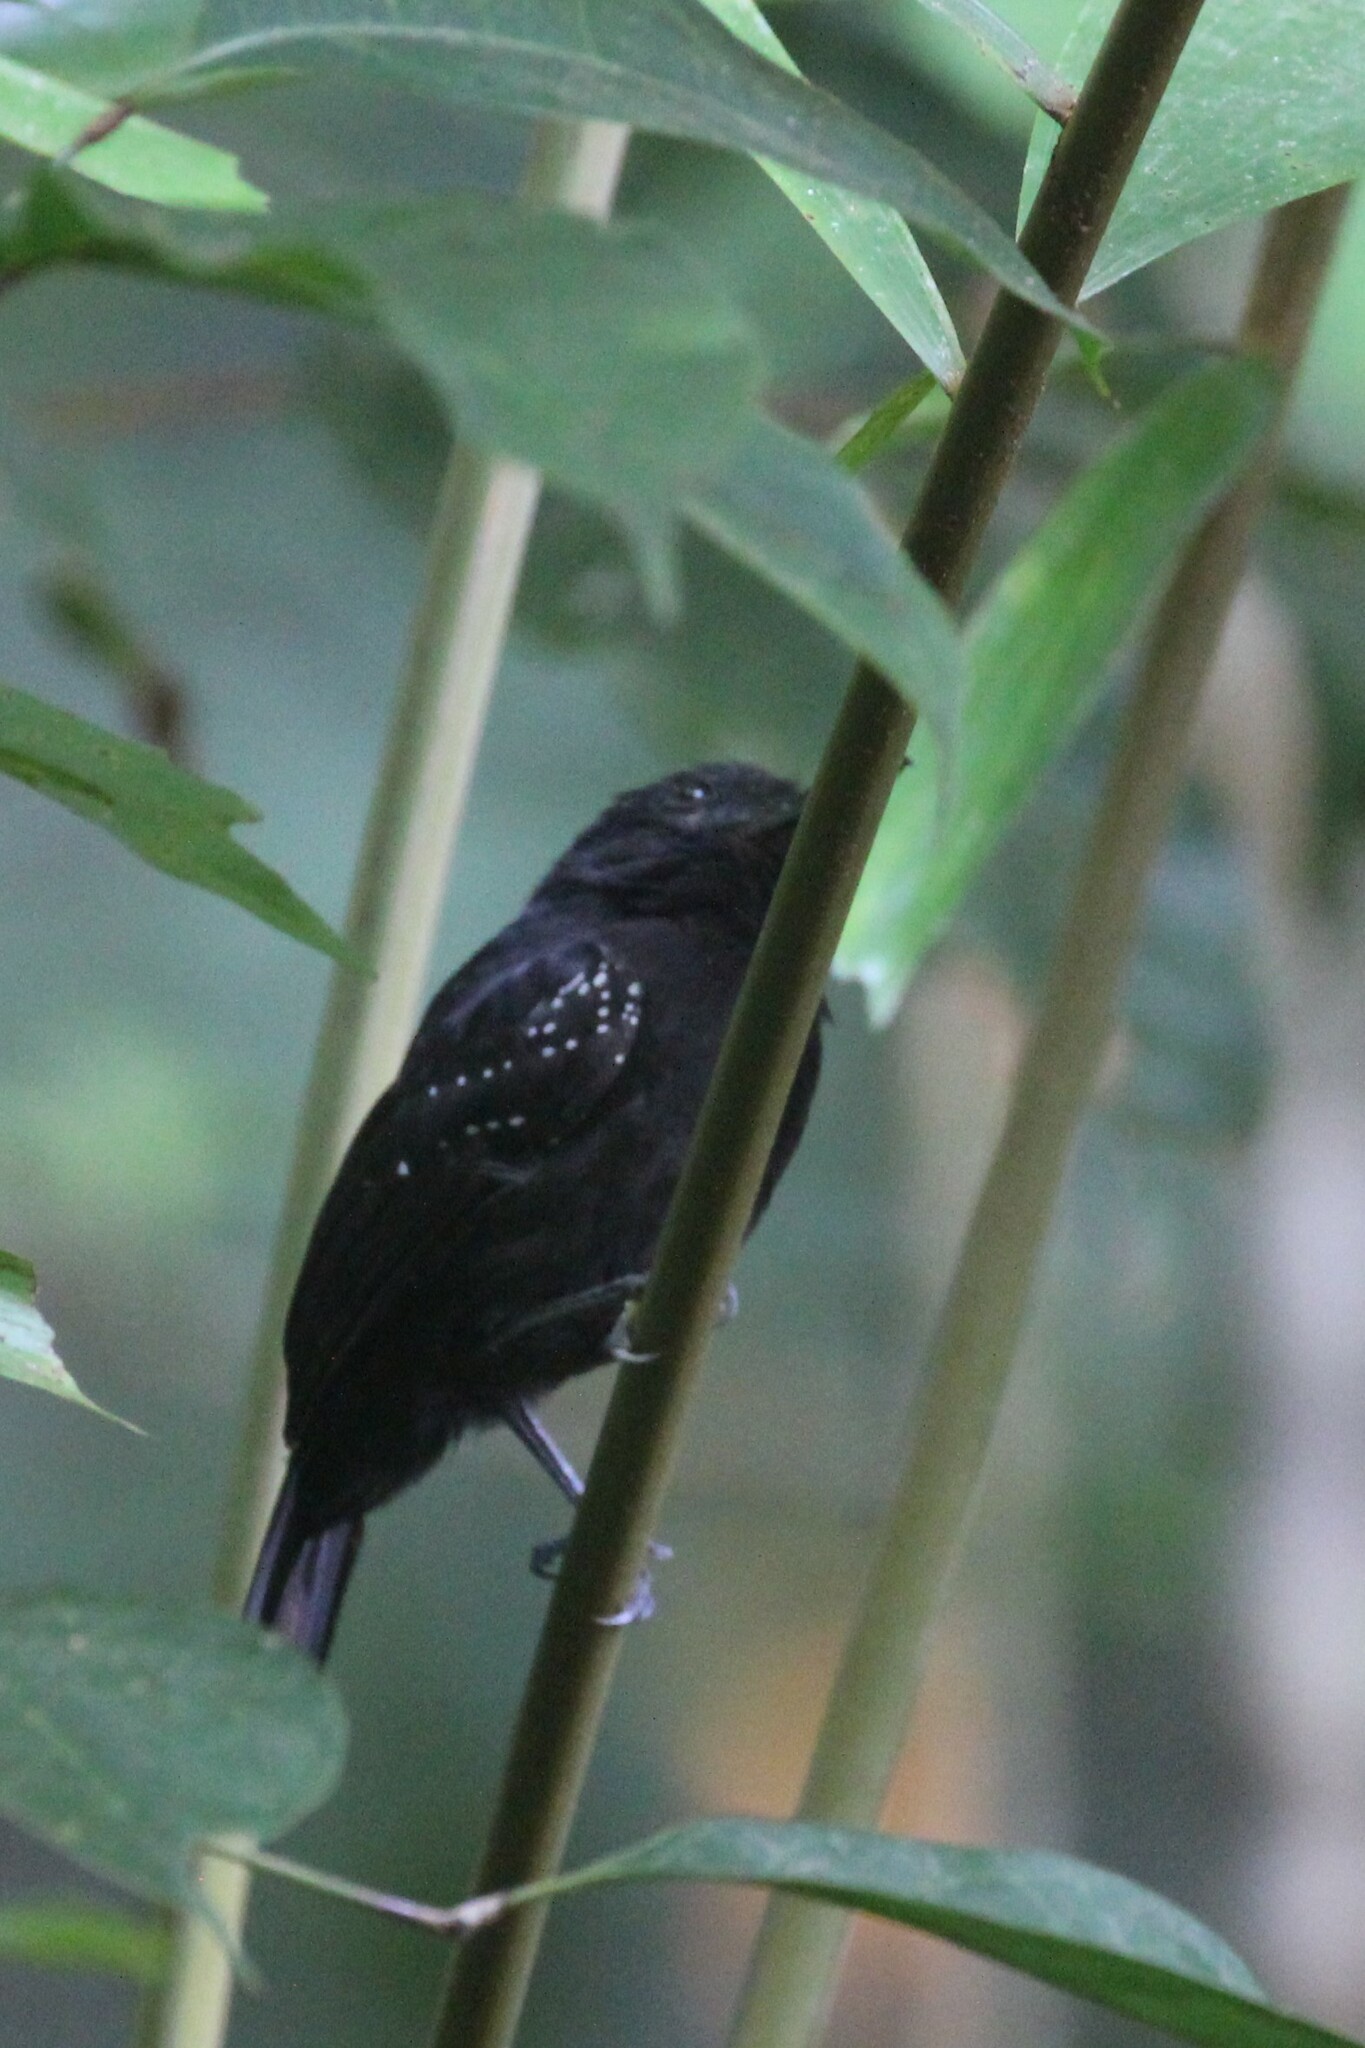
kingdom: Animalia
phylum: Chordata
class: Aves
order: Passeriformes
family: Thamnophilidae
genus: Thamnophilus
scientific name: Thamnophilus bridgesi
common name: Black-hooded antshrike
